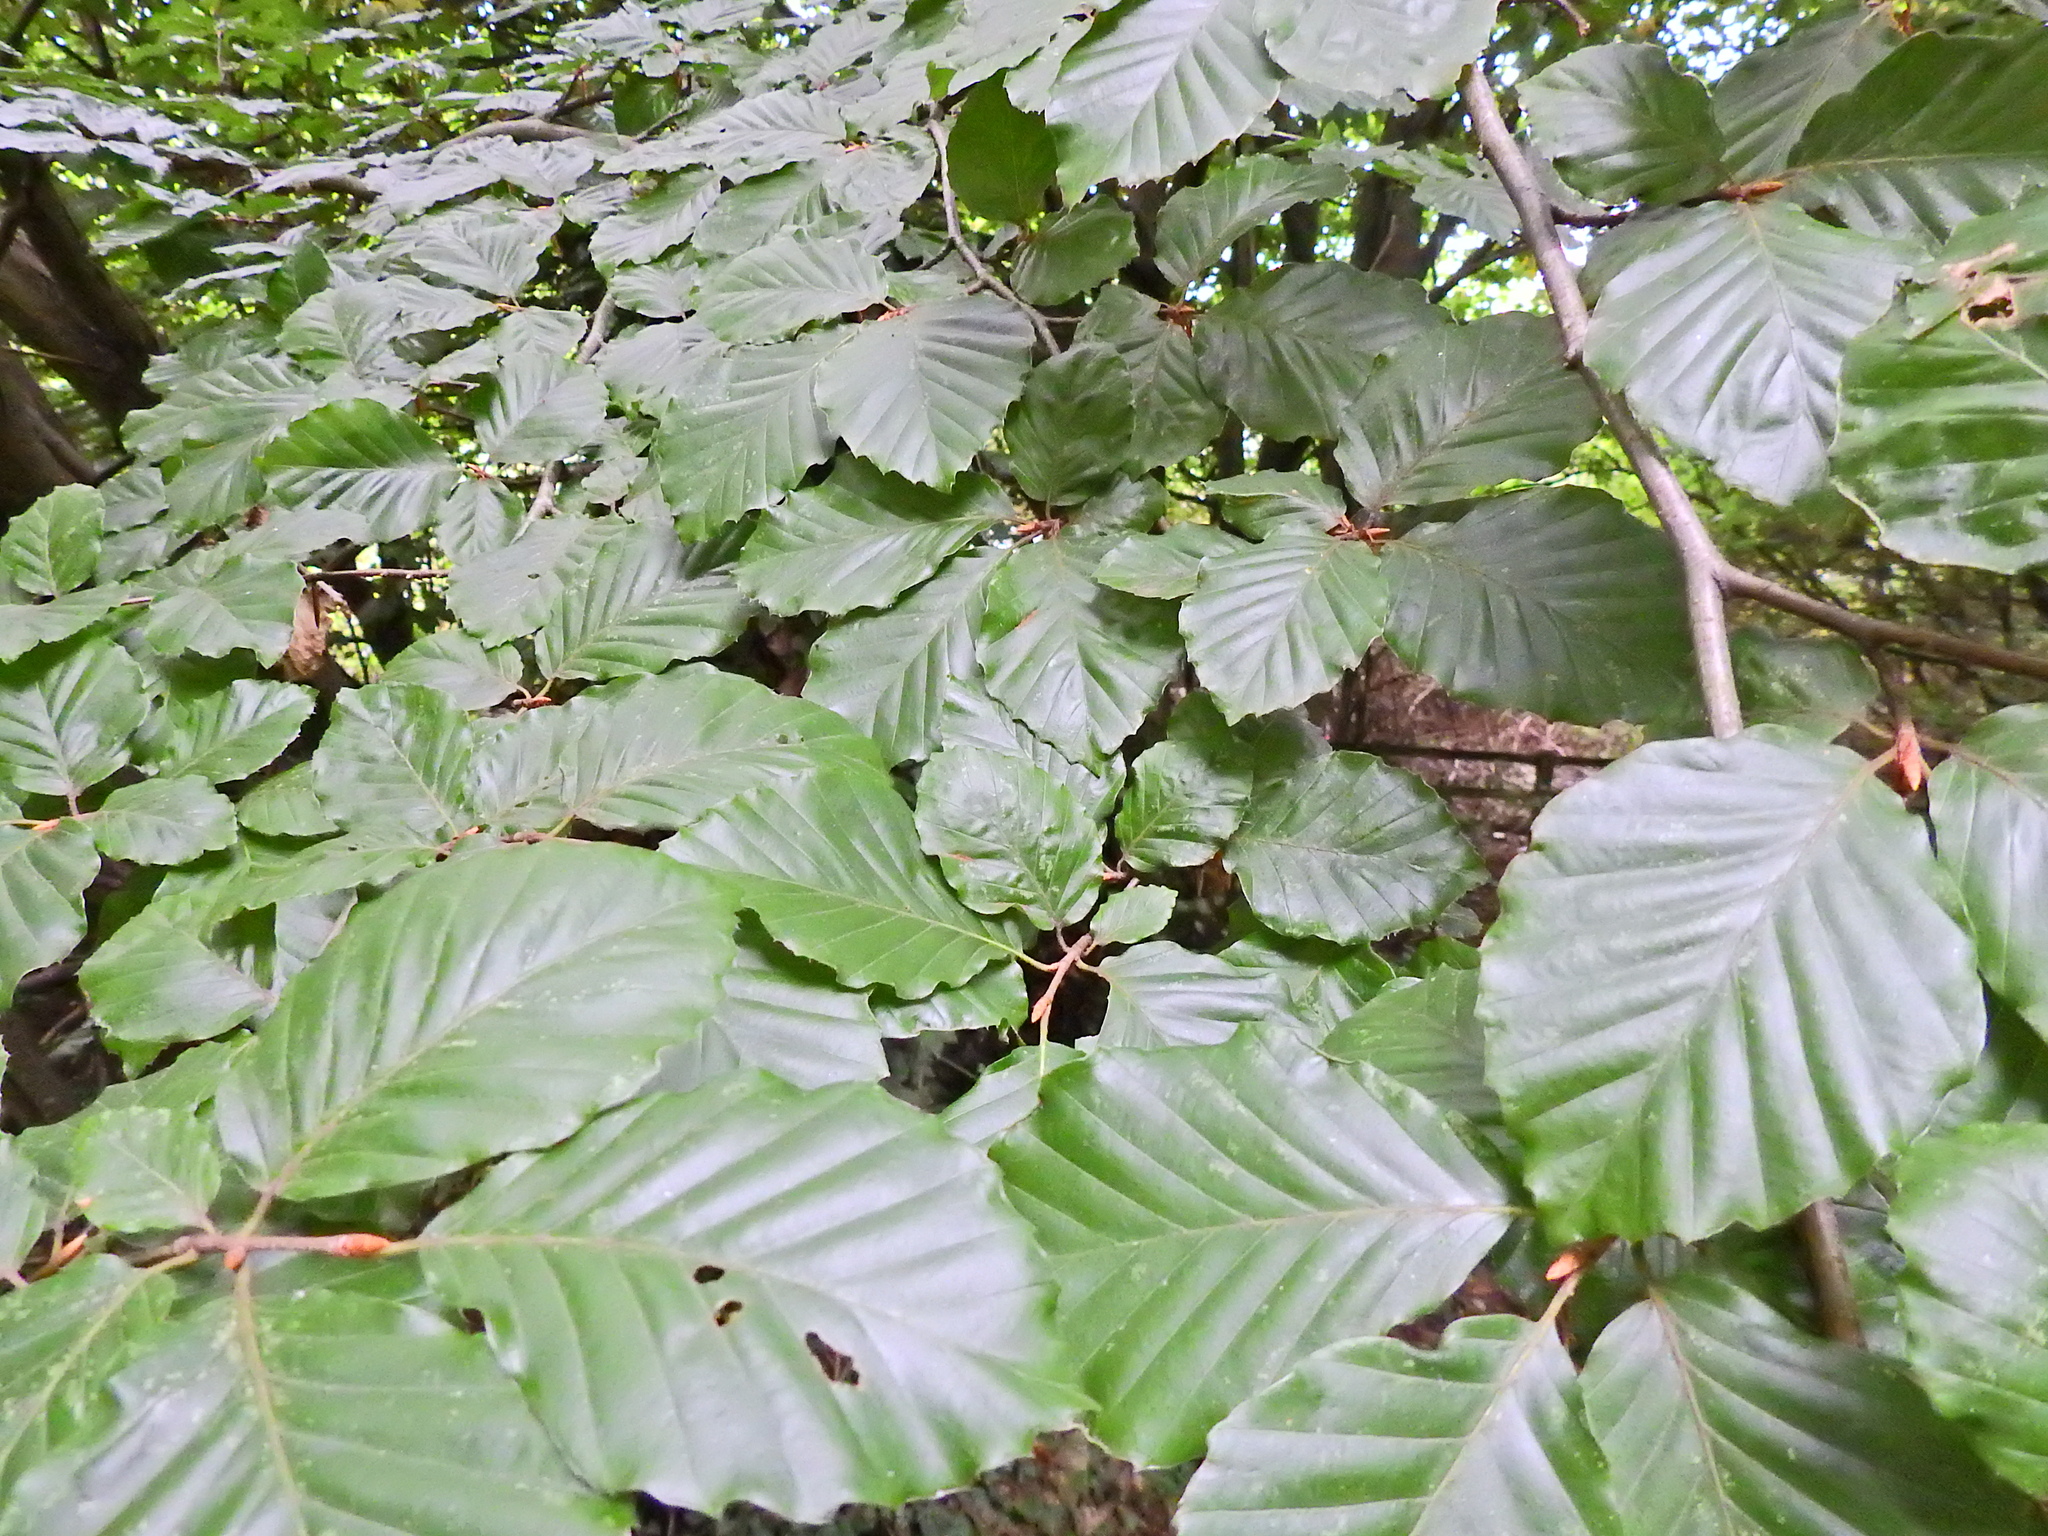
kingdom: Plantae
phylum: Tracheophyta
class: Magnoliopsida
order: Fagales
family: Fagaceae
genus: Fagus
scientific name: Fagus sylvatica
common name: Beech
